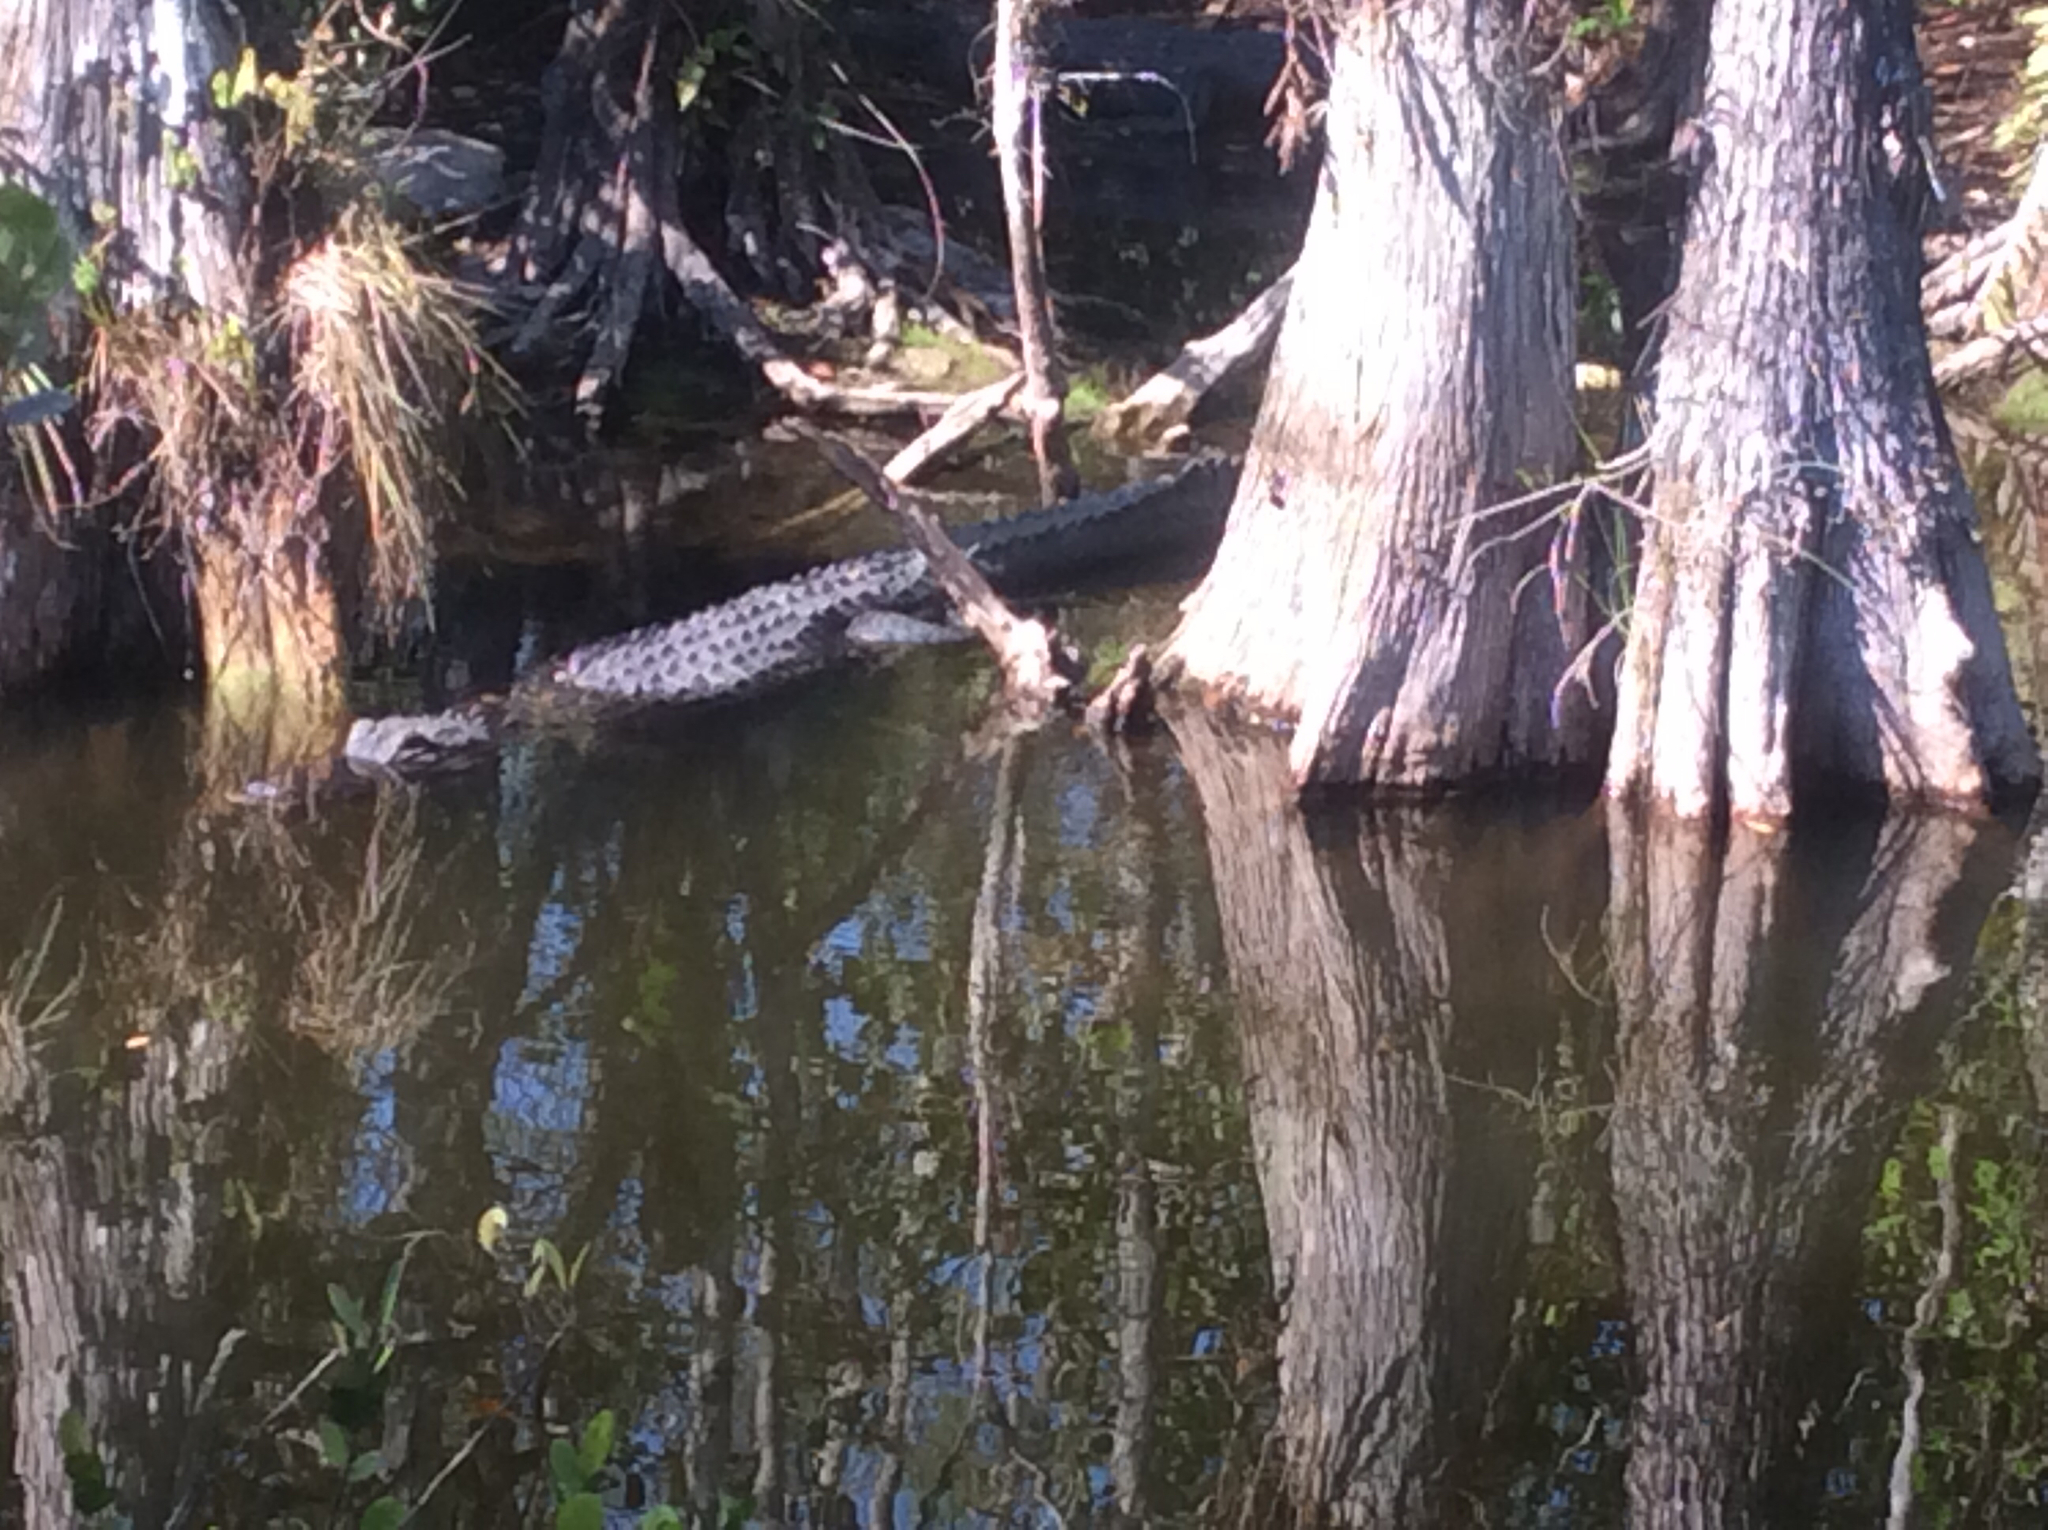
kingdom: Animalia
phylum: Chordata
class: Crocodylia
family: Alligatoridae
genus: Alligator
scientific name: Alligator mississippiensis
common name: American alligator
